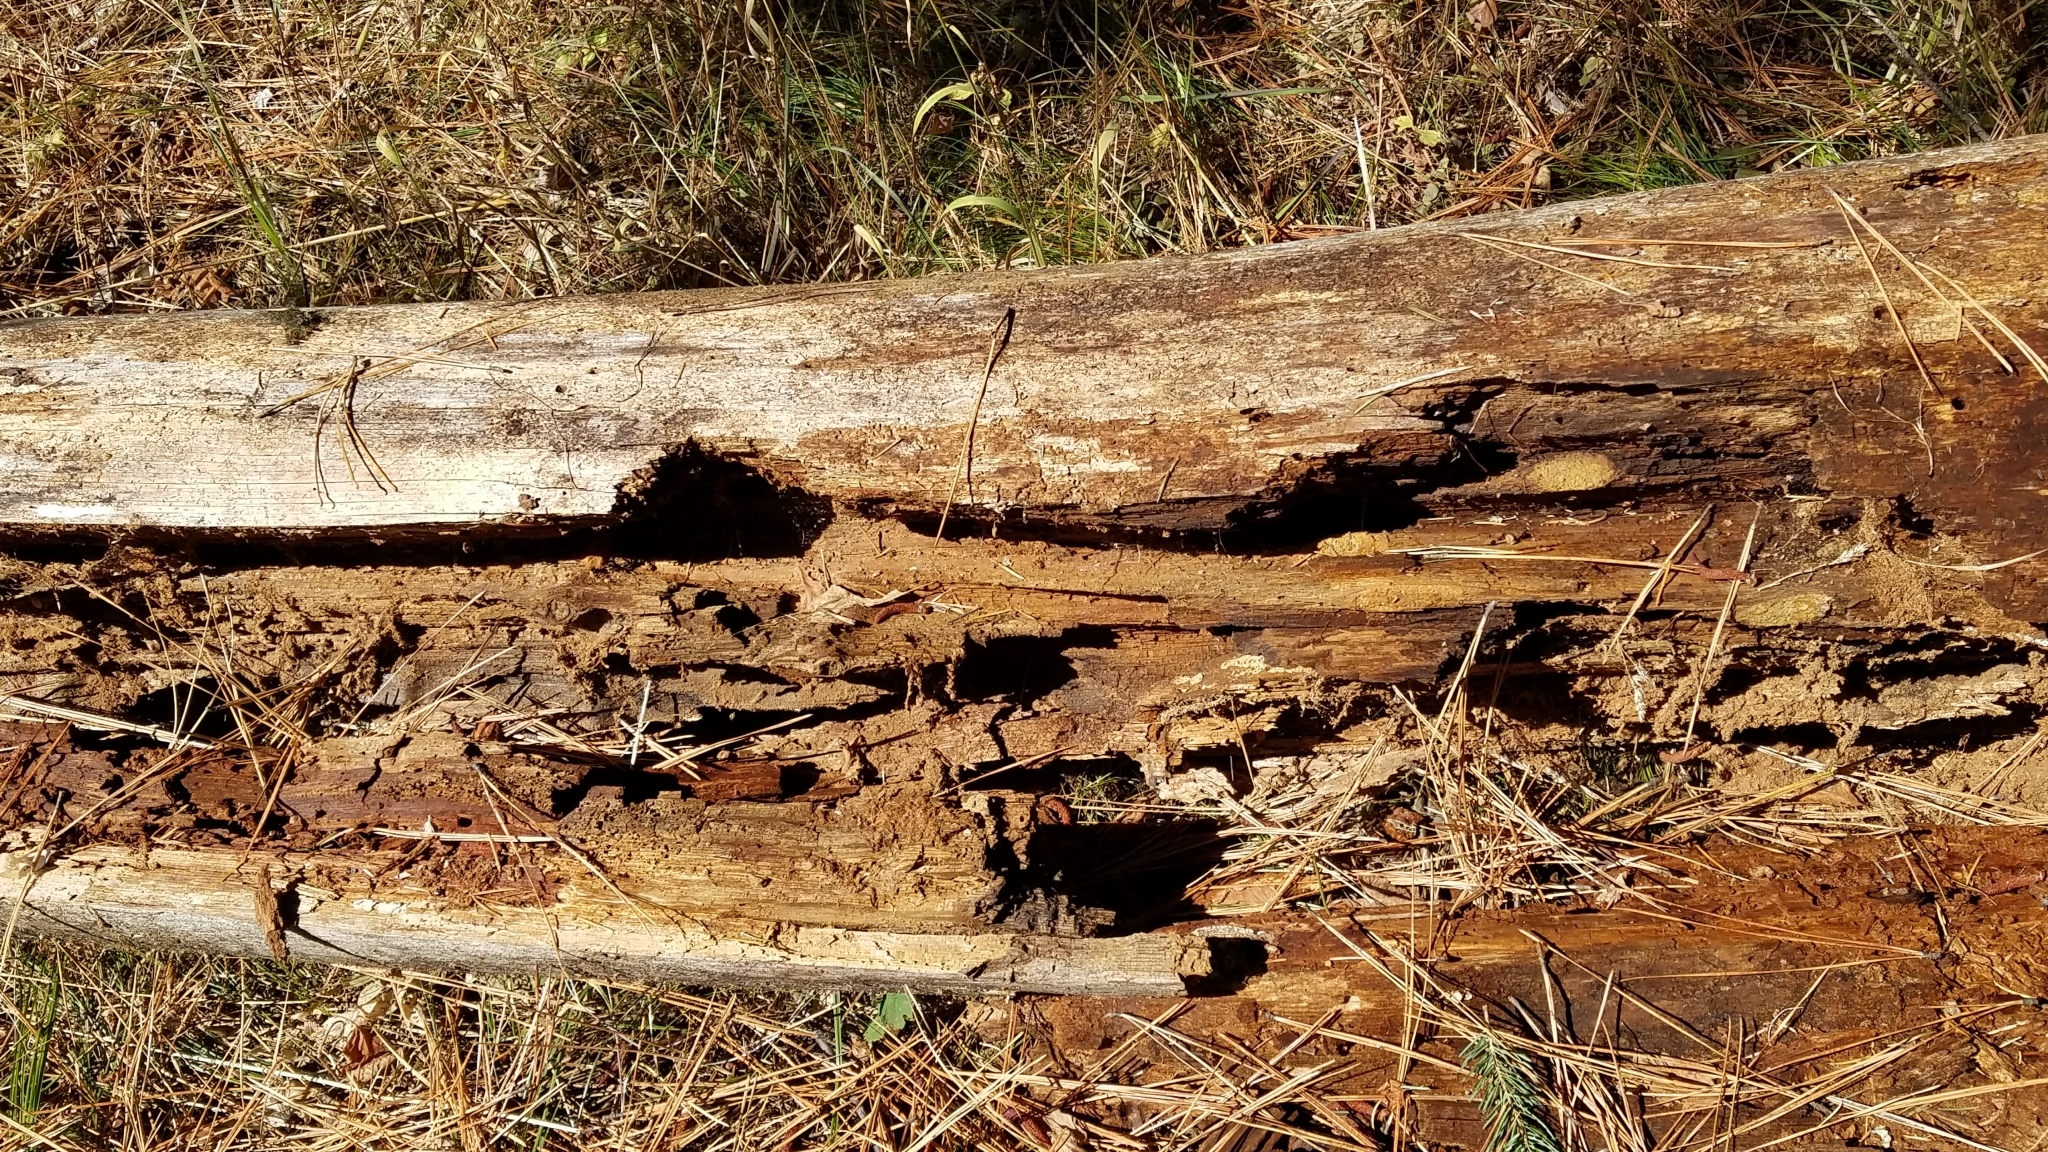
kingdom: Animalia
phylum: Chordata
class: Mammalia
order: Carnivora
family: Ursidae
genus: Ursus
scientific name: Ursus americanus
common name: American black bear
